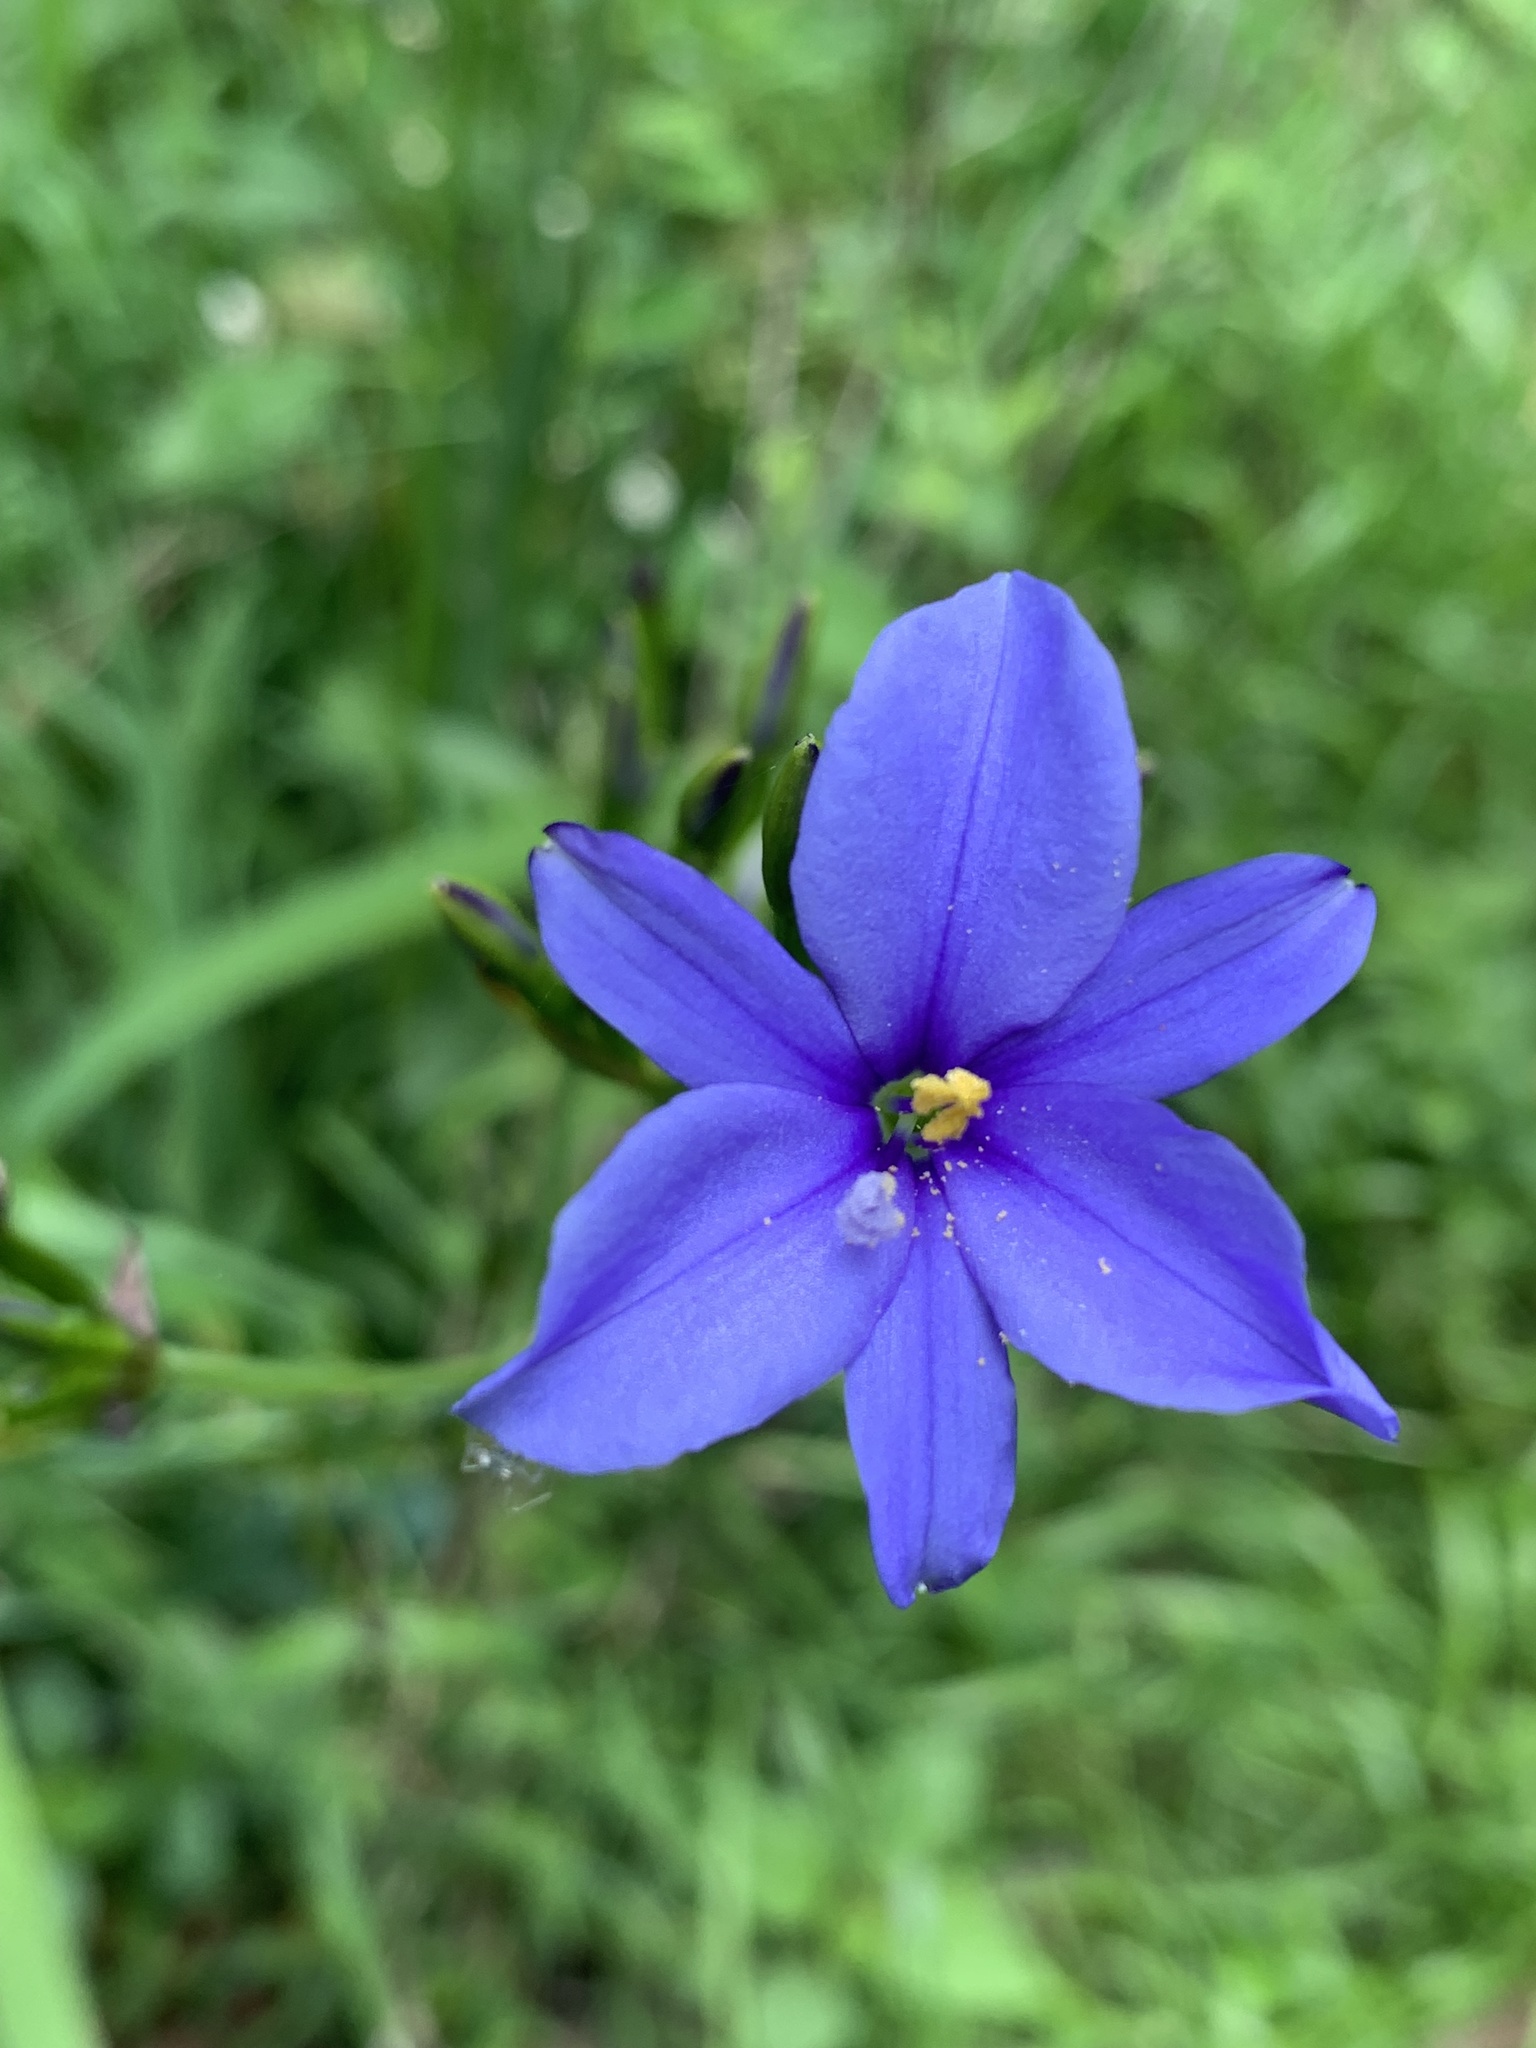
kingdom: Plantae
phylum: Tracheophyta
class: Liliopsida
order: Asparagales
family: Iridaceae
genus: Aristea
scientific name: Aristea ecklonii
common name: Blue corn-lily
